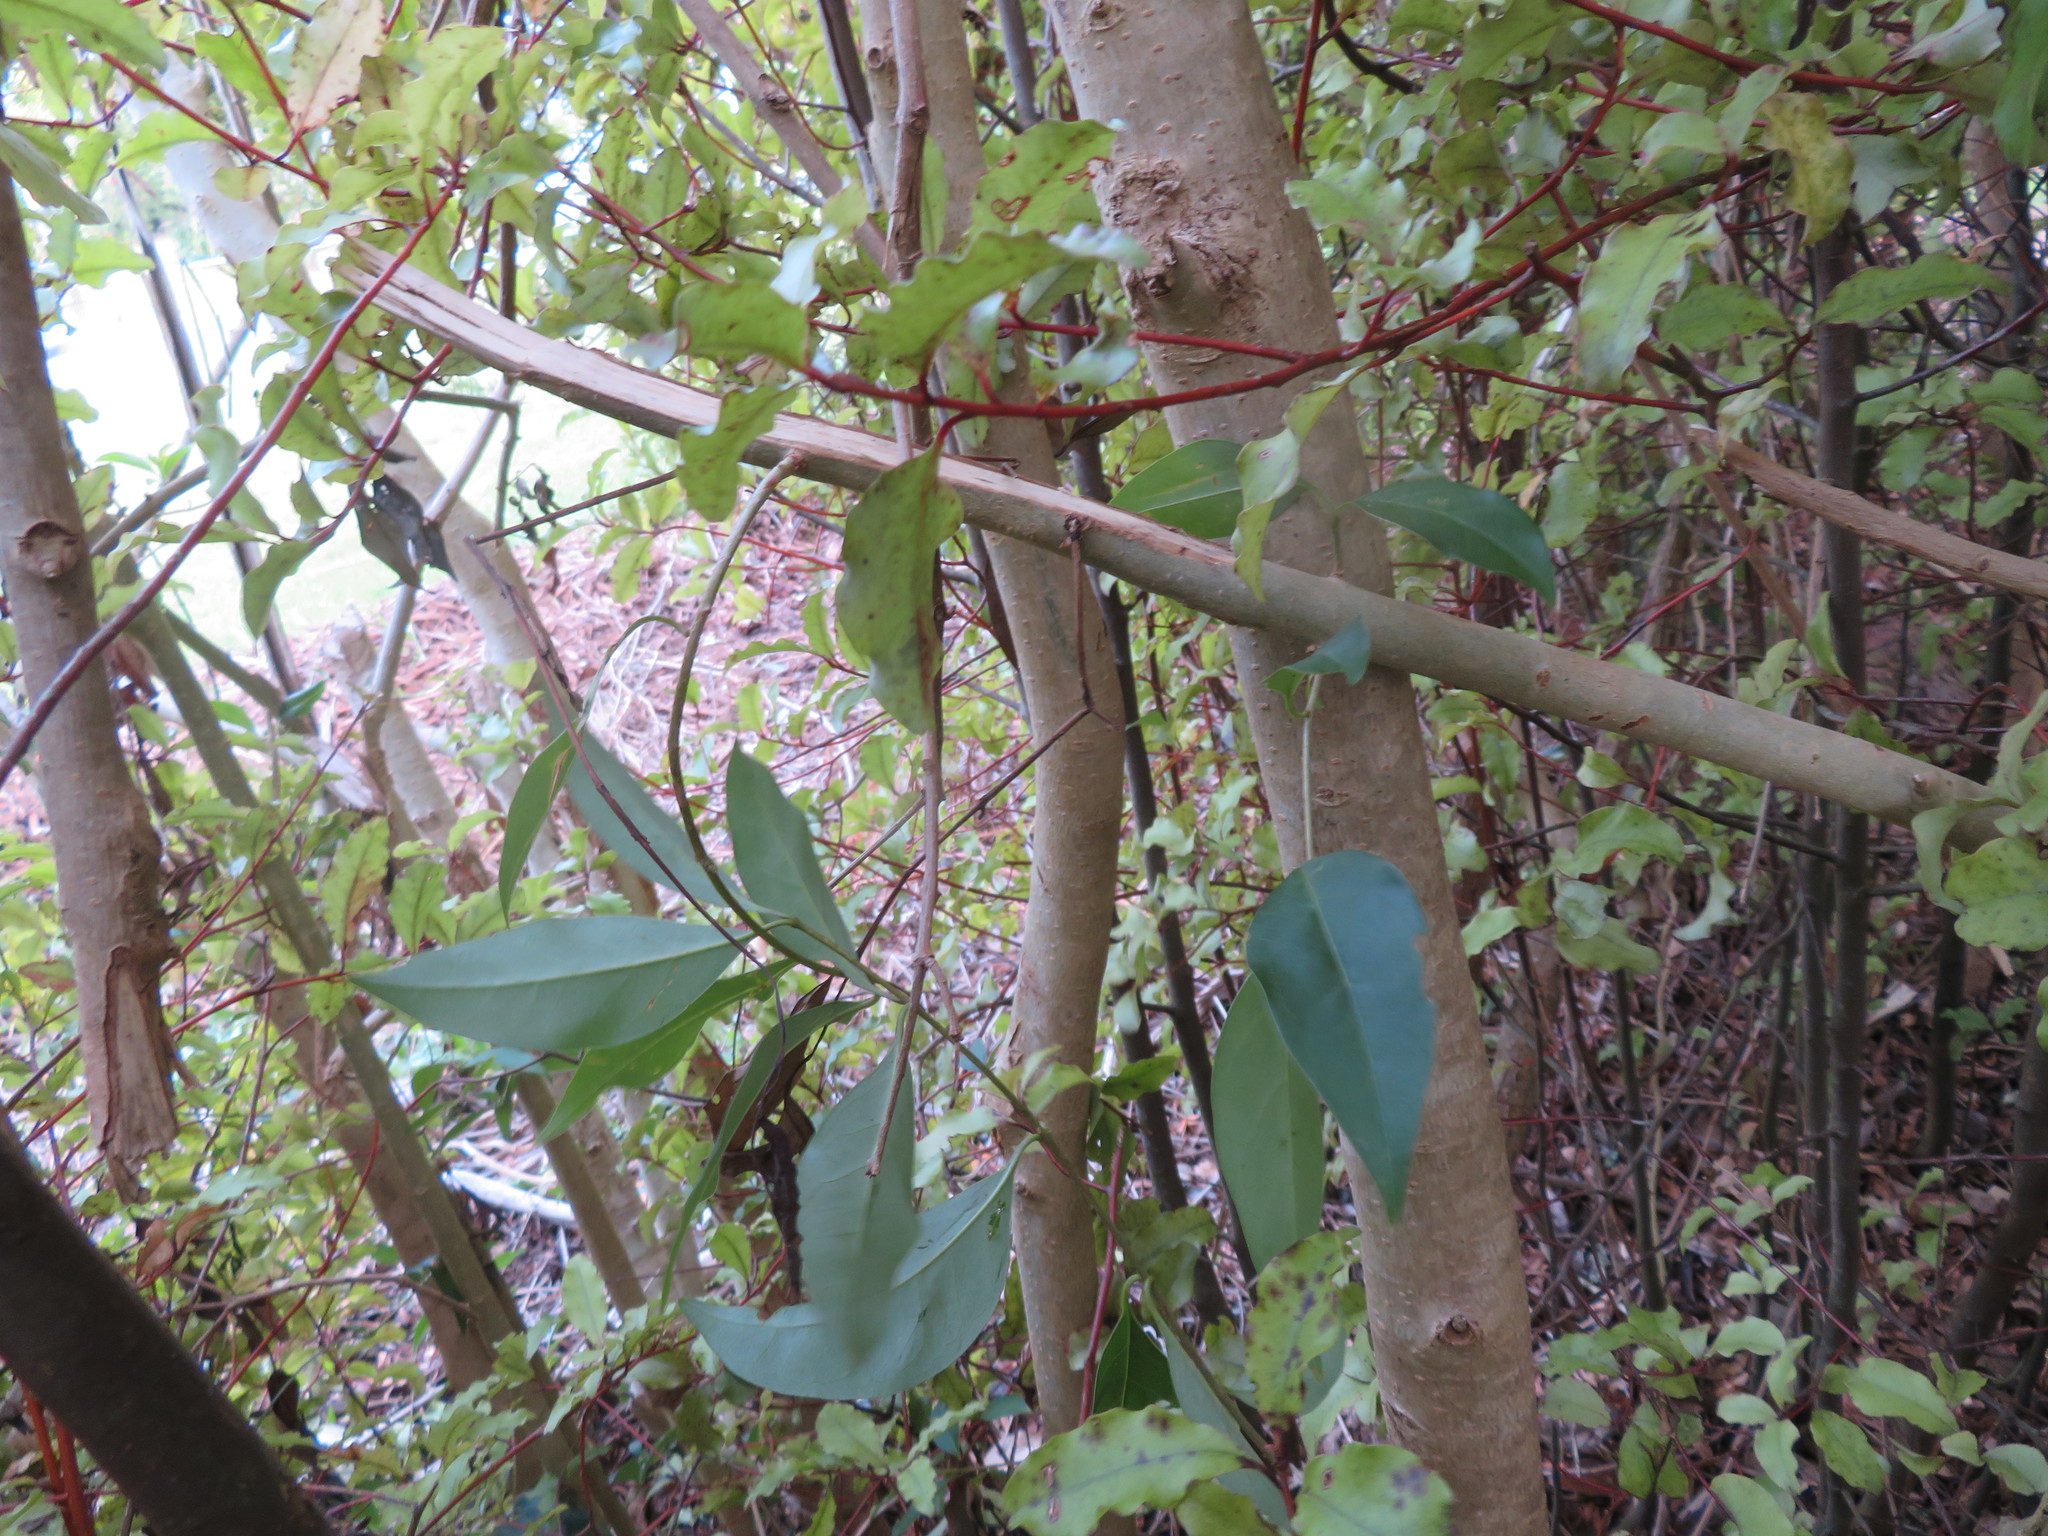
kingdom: Plantae
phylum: Tracheophyta
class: Magnoliopsida
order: Lamiales
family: Oleaceae
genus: Ligustrum
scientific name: Ligustrum lucidum
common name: Glossy privet
